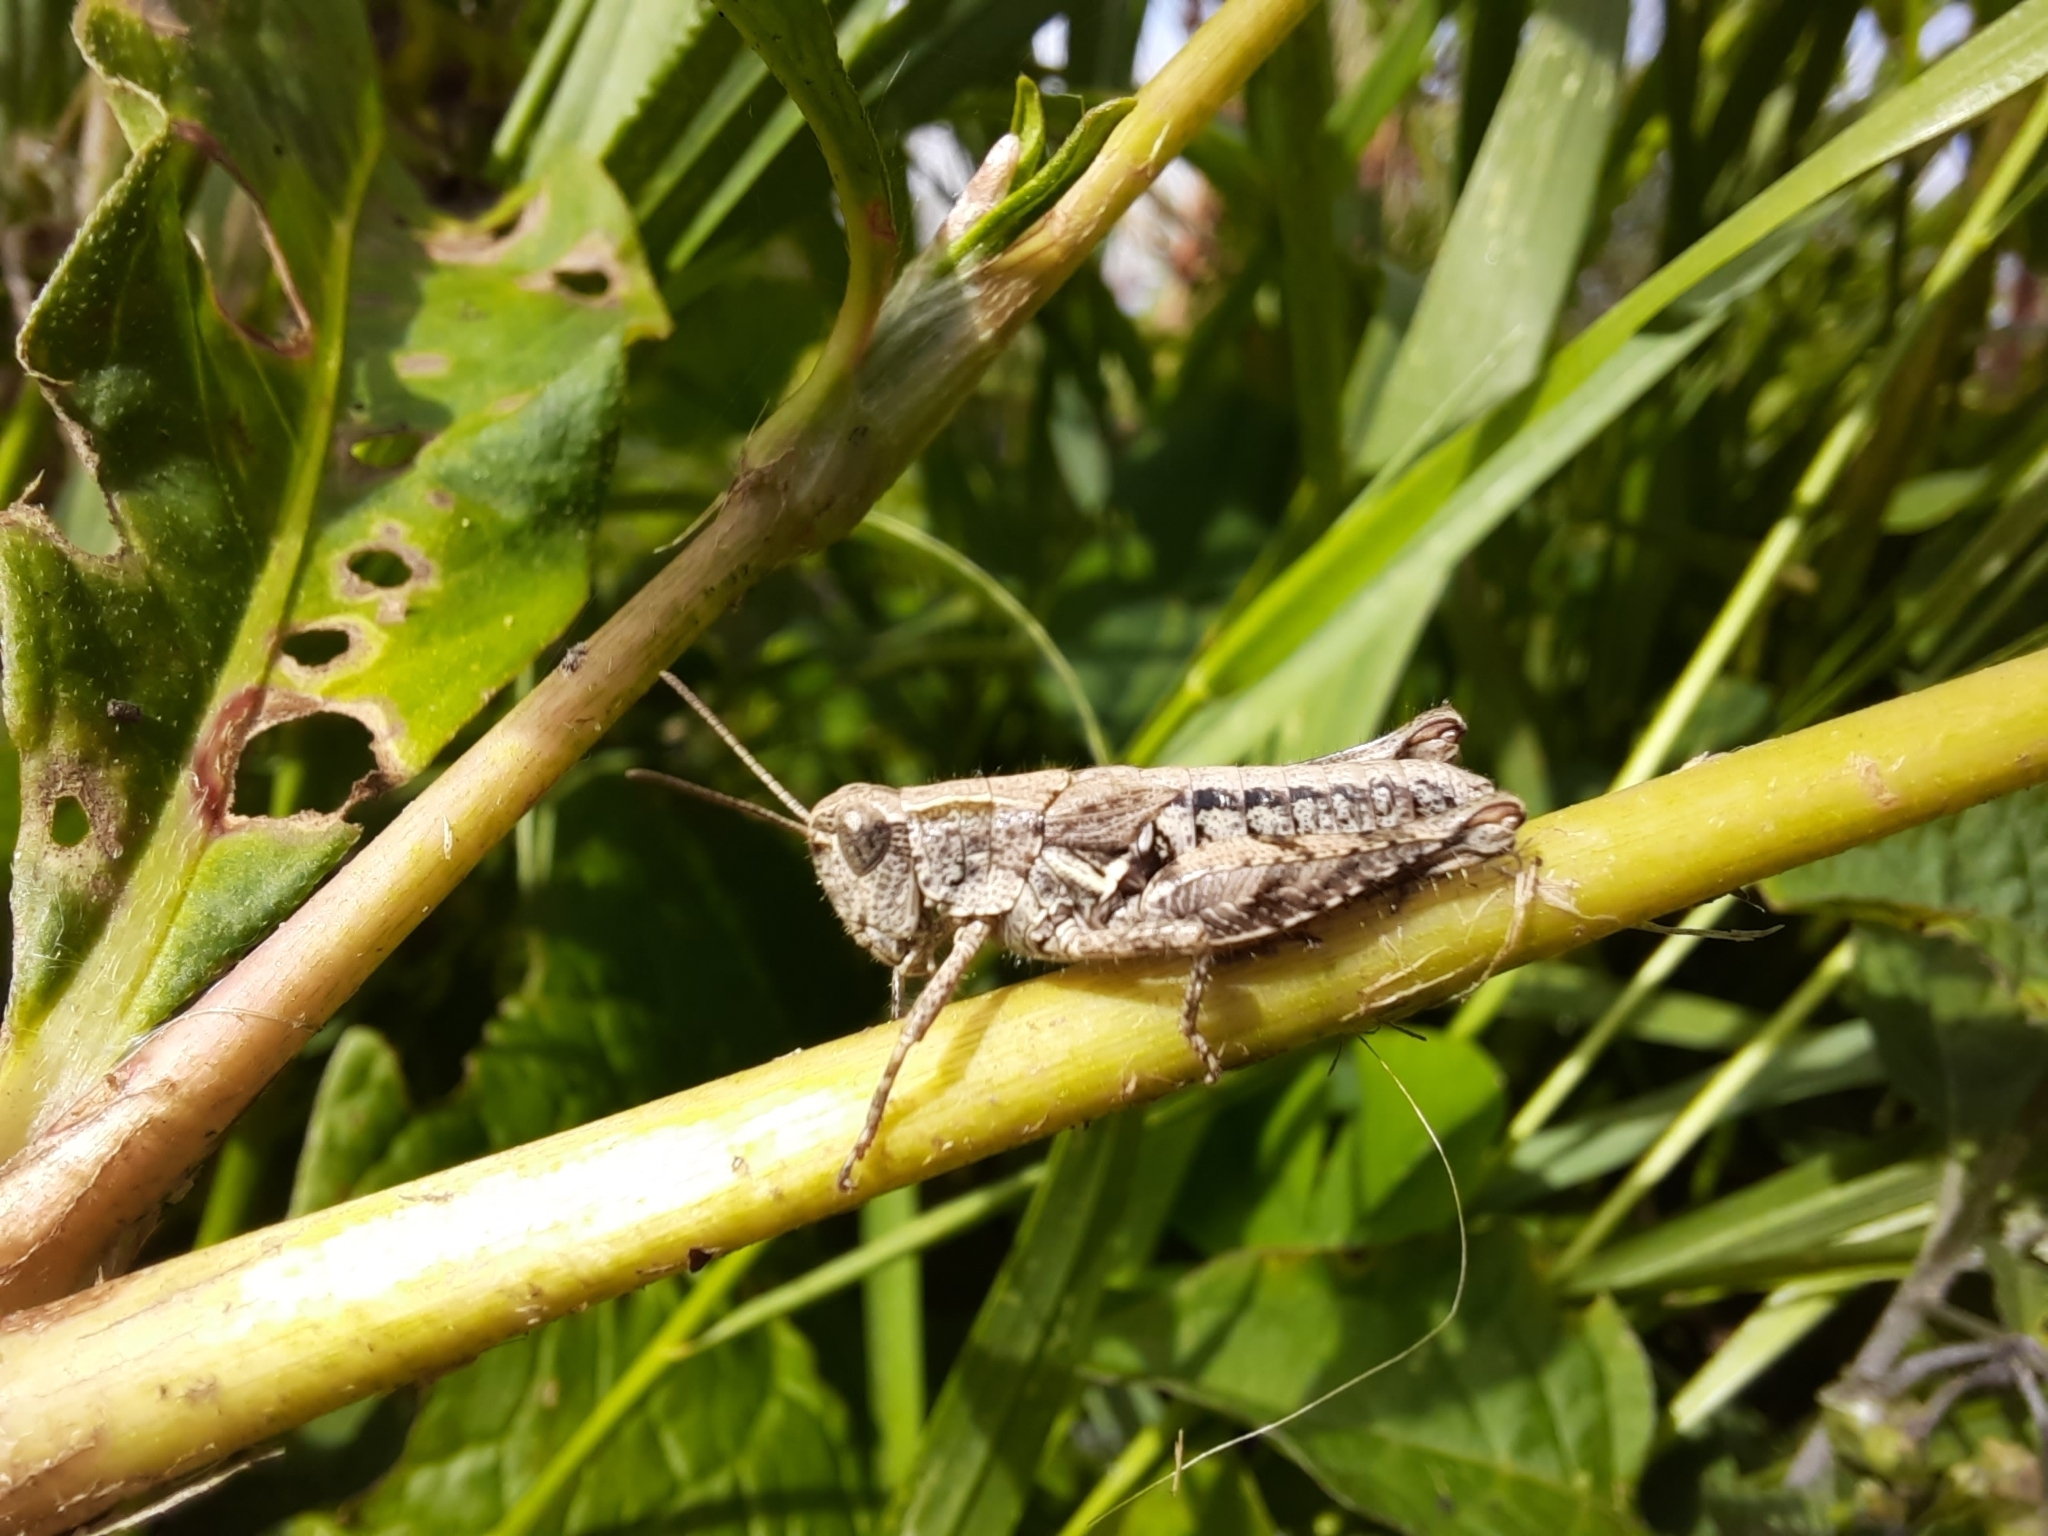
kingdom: Animalia
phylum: Arthropoda
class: Insecta
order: Orthoptera
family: Acrididae
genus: Phaulacridium
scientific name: Phaulacridium marginale
